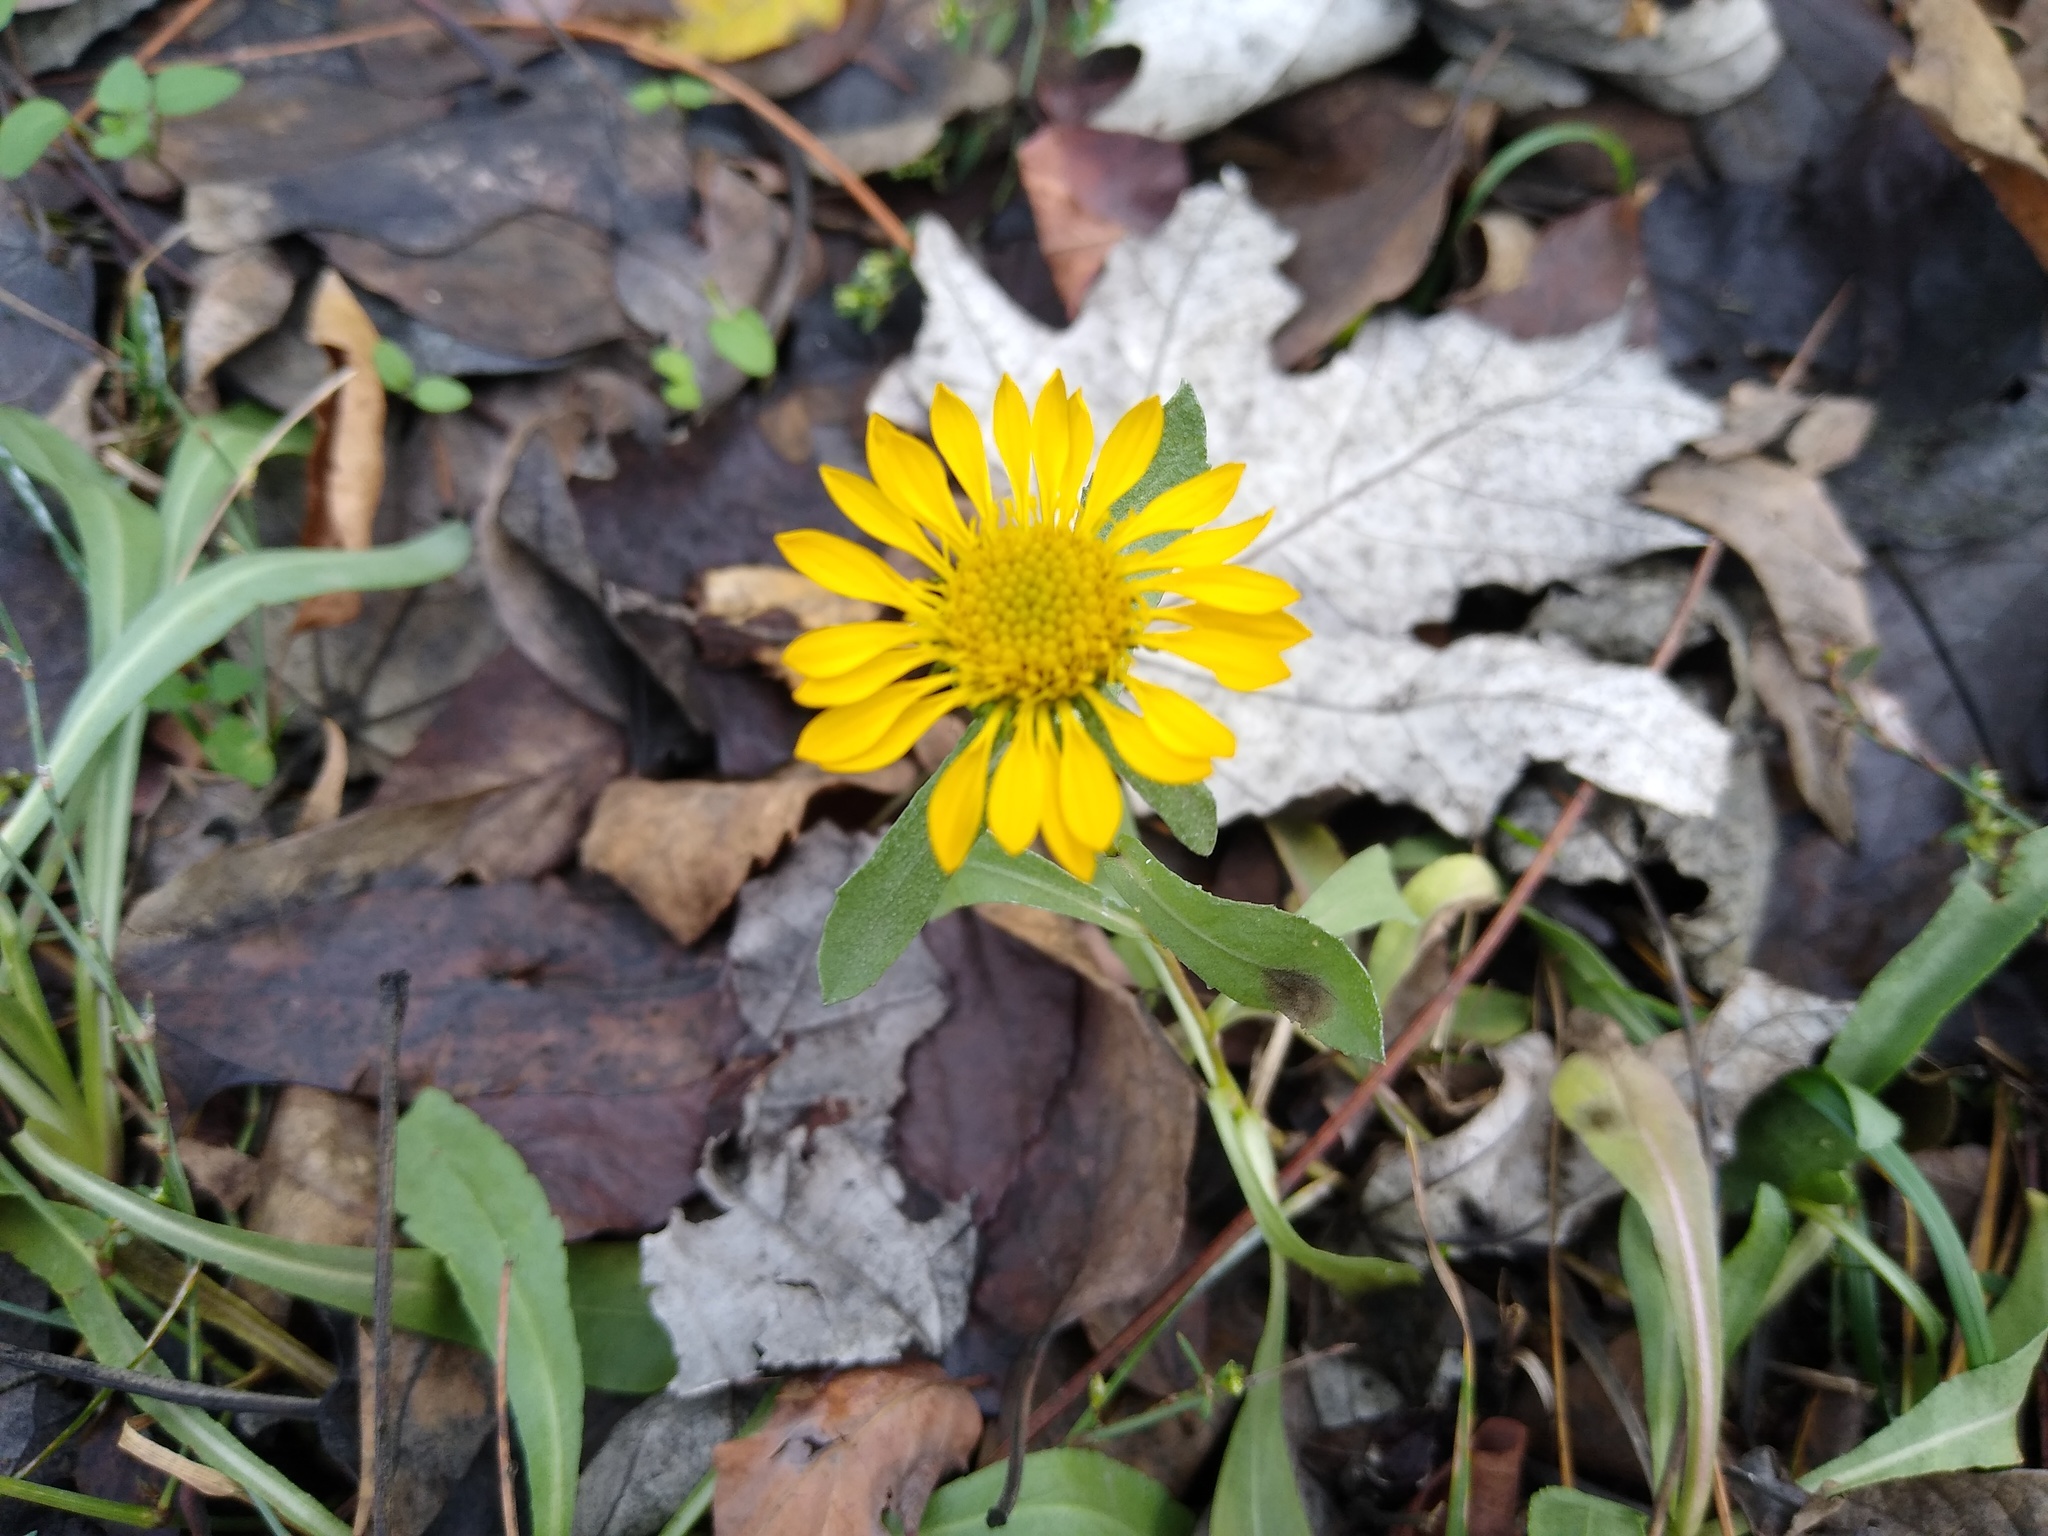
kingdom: Plantae
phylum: Tracheophyta
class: Magnoliopsida
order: Asterales
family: Asteraceae
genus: Grindelia
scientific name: Grindelia squarrosa
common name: Curly-cup gumweed
